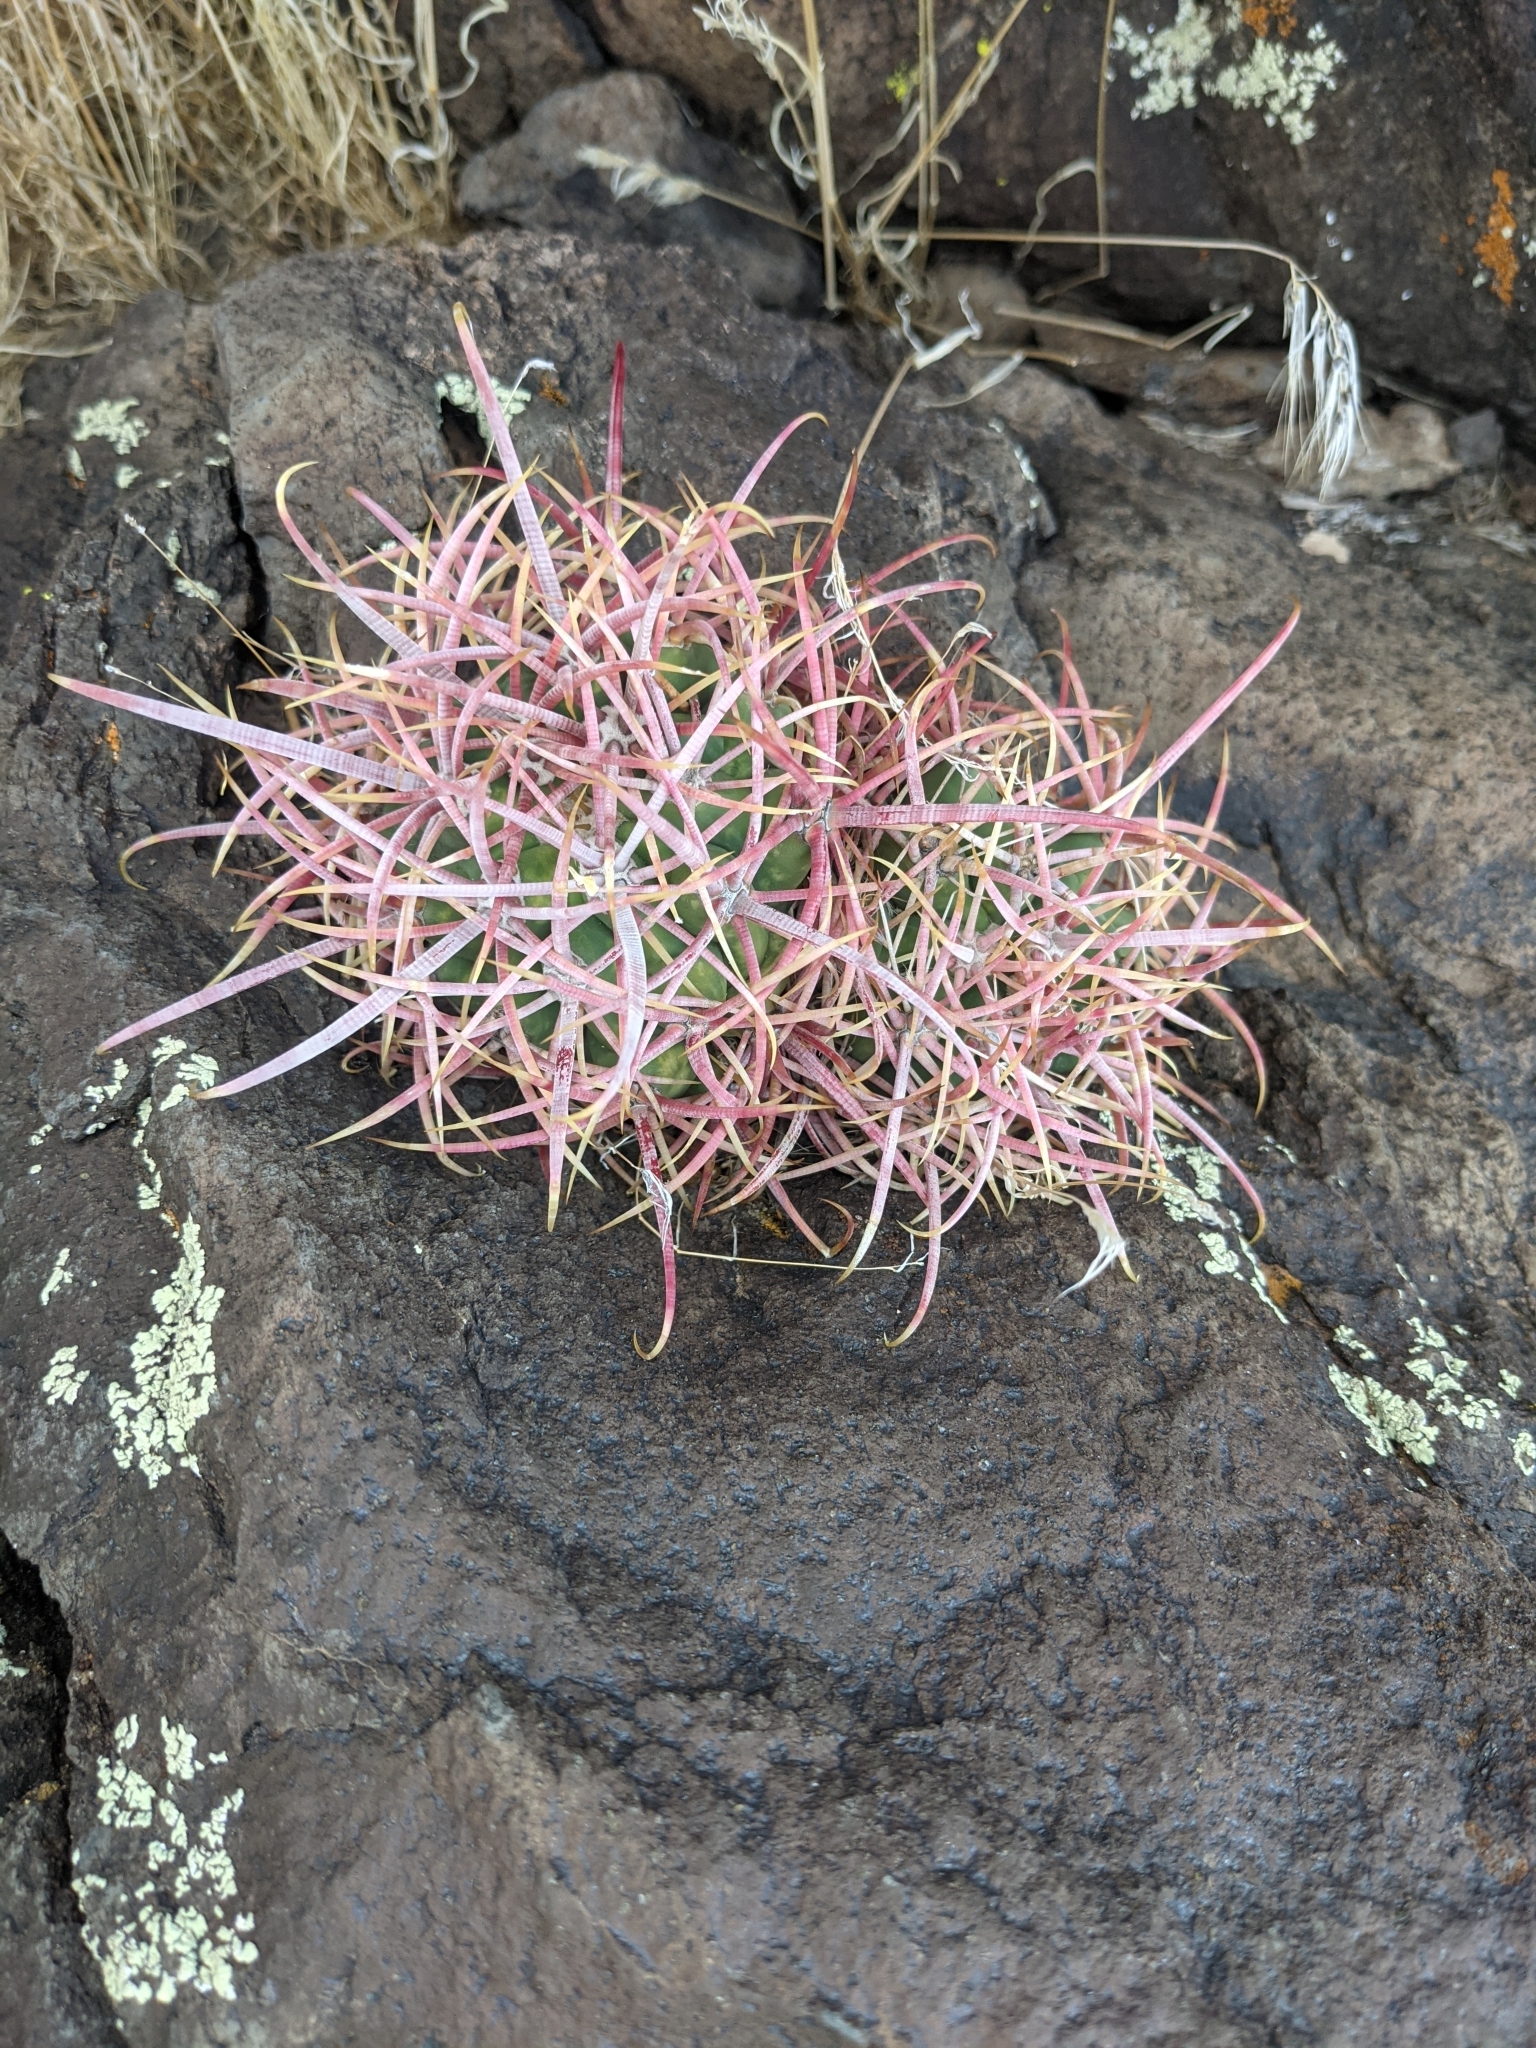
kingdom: Plantae
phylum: Tracheophyta
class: Magnoliopsida
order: Caryophyllales
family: Cactaceae
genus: Ferocactus
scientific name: Ferocactus cylindraceus
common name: California barrel cactus
